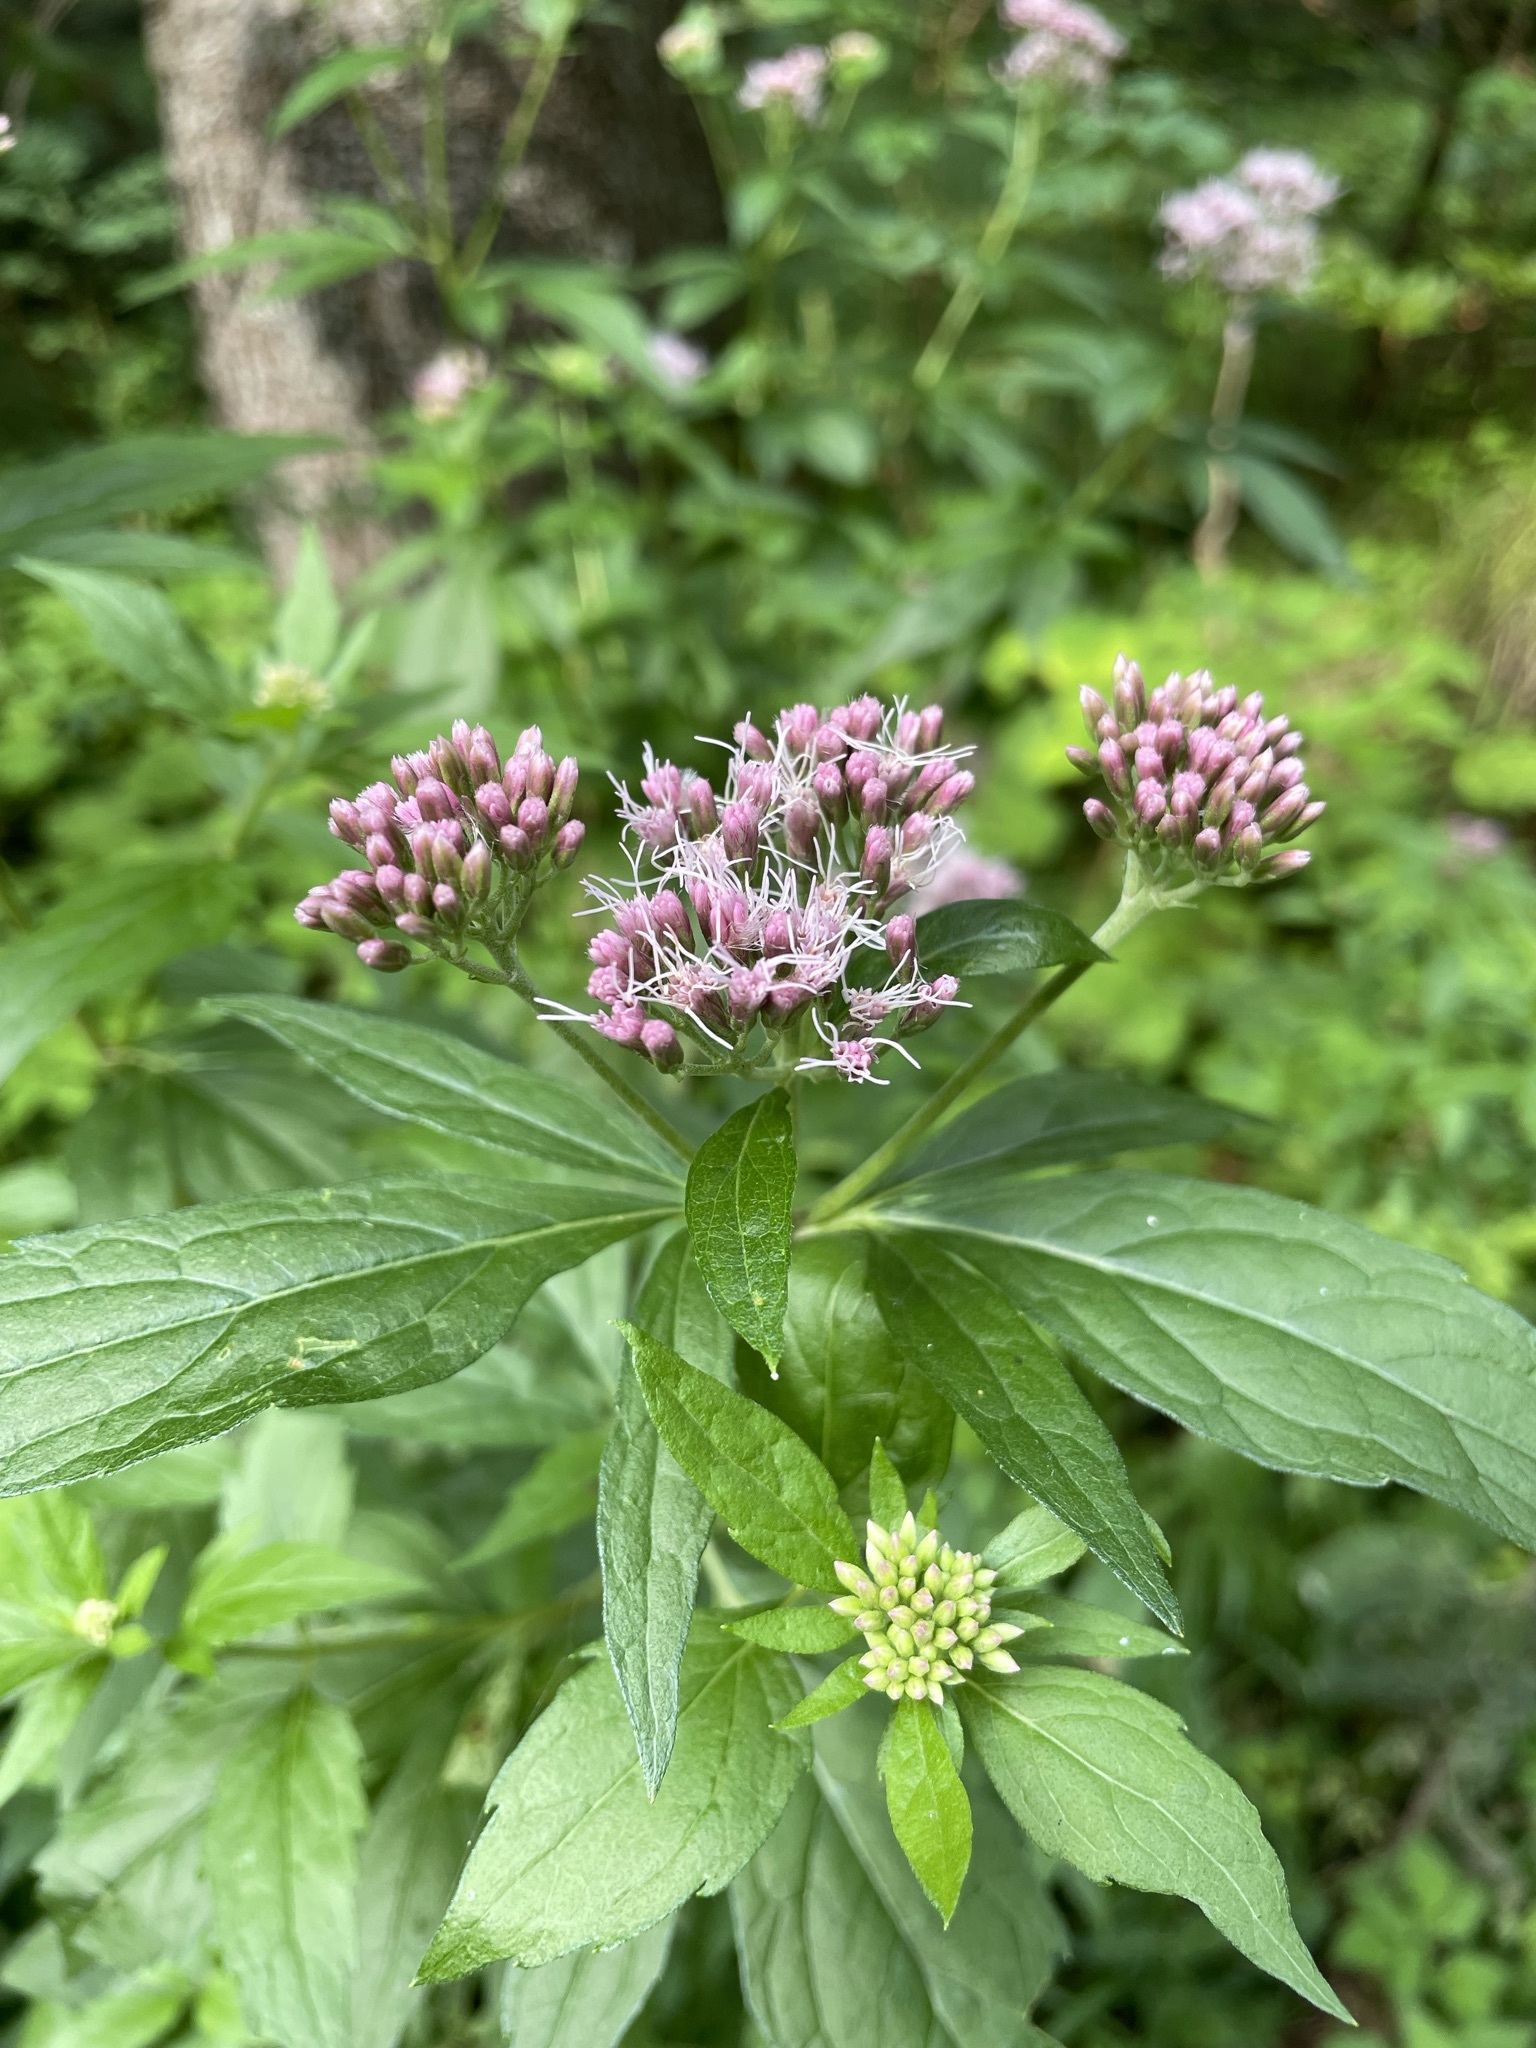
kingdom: Plantae
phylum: Tracheophyta
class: Magnoliopsida
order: Asterales
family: Asteraceae
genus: Eupatorium
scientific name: Eupatorium cannabinum
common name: Hemp-agrimony
